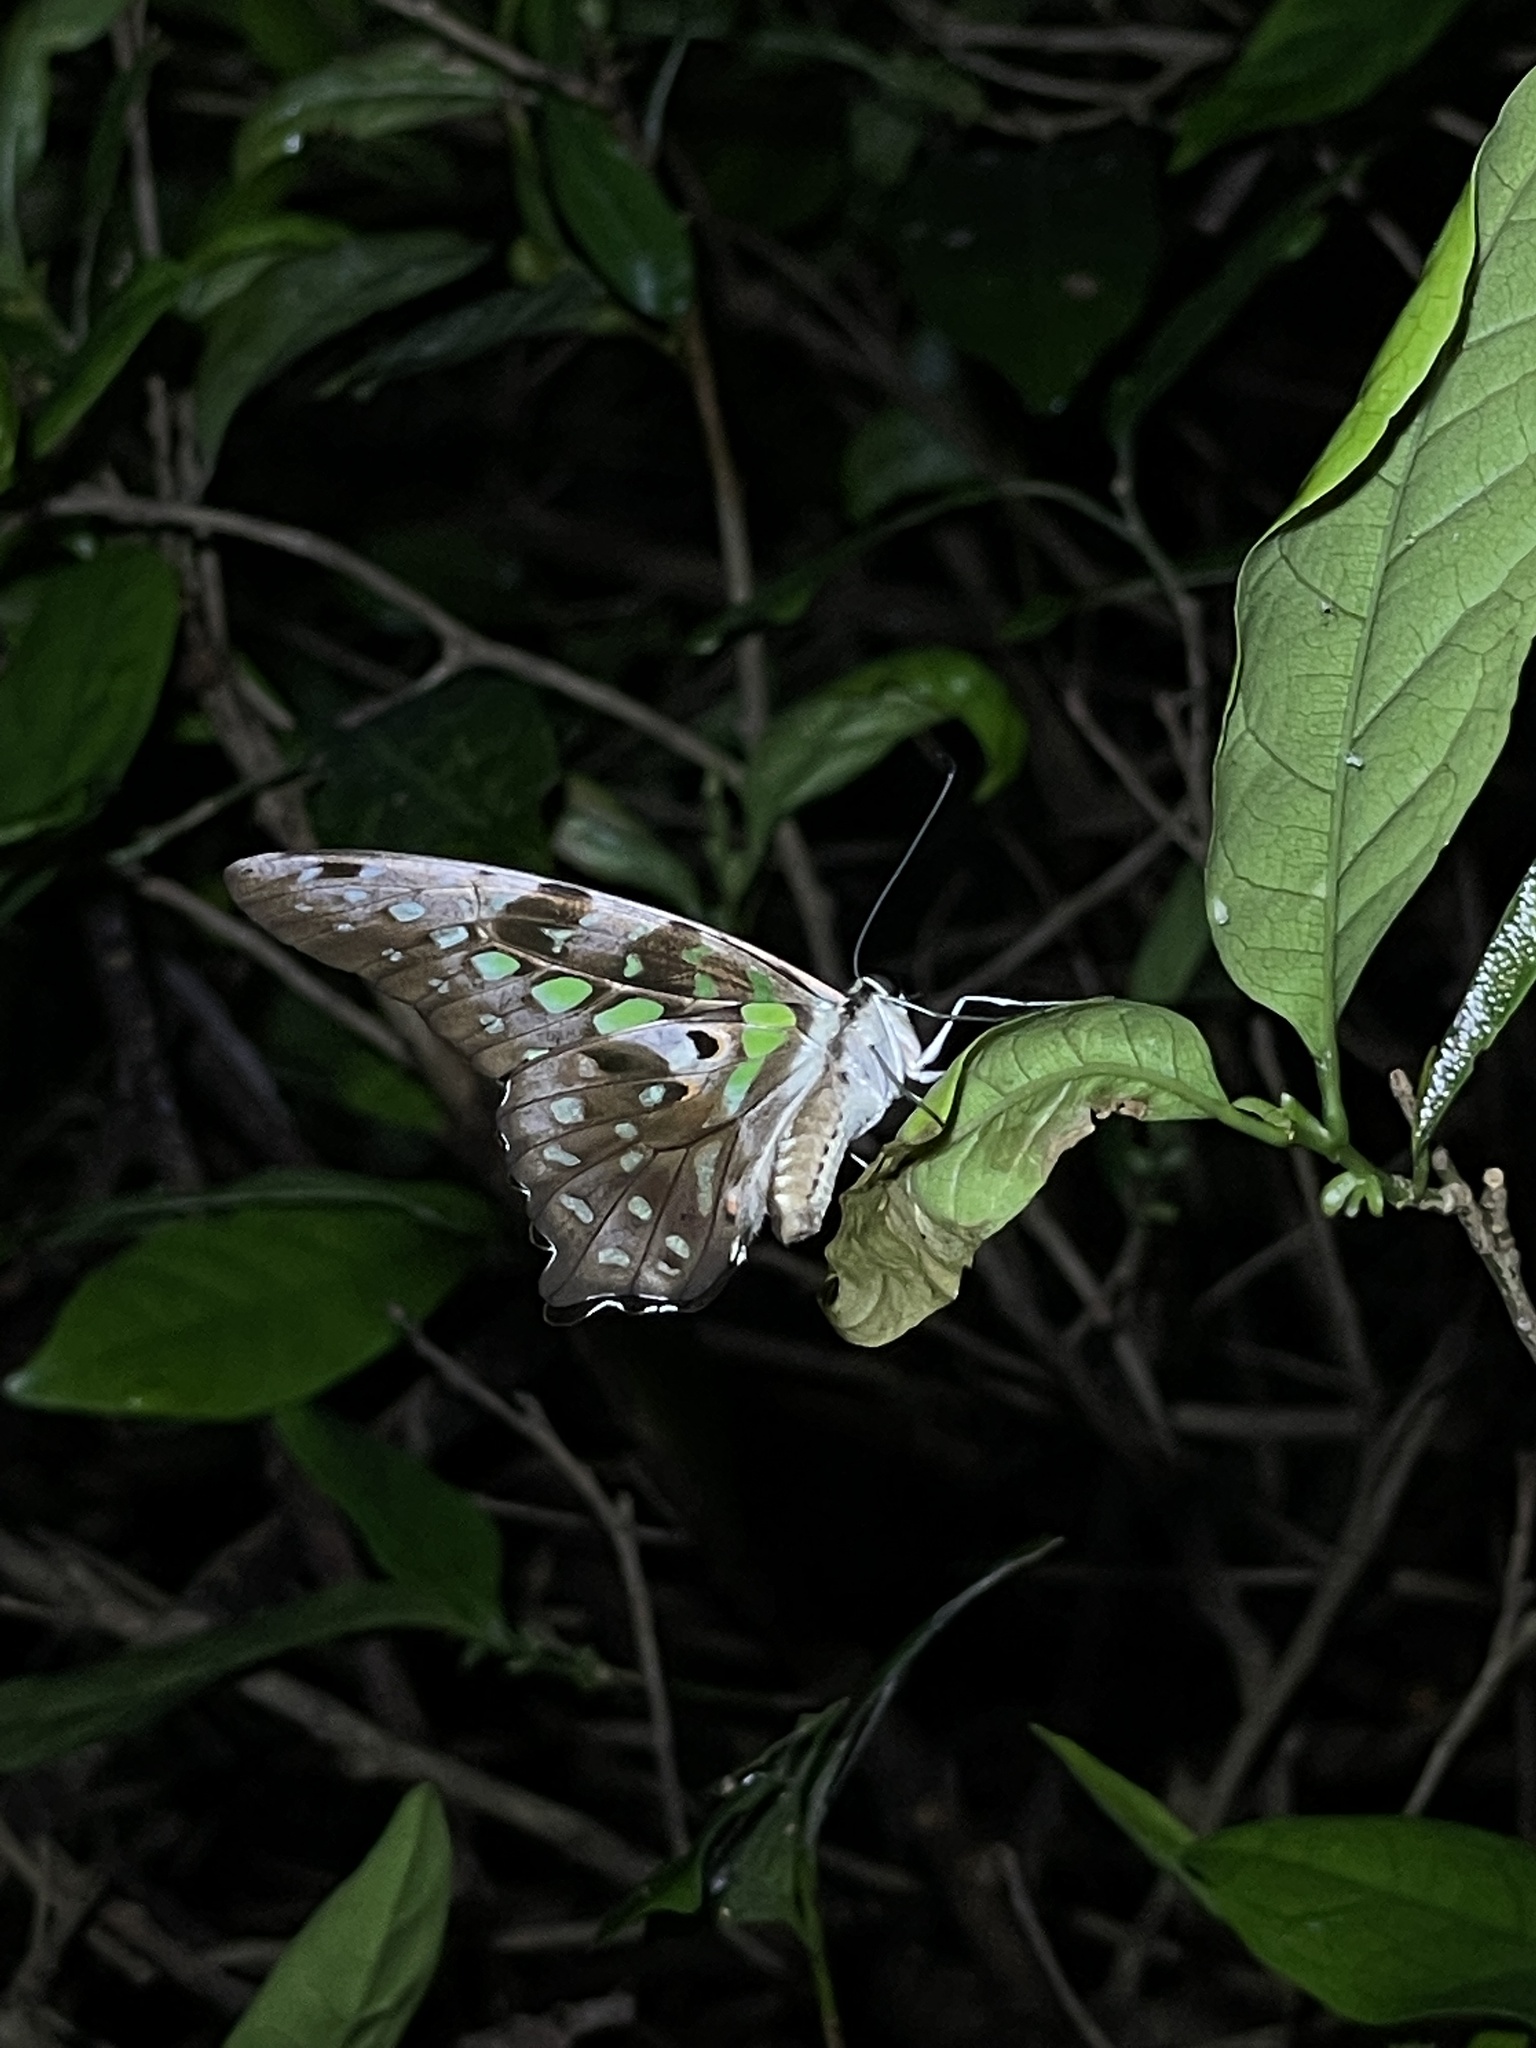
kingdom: Animalia
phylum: Arthropoda
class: Insecta
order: Lepidoptera
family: Papilionidae
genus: Graphium
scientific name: Graphium agamemnon
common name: Tailed jay
